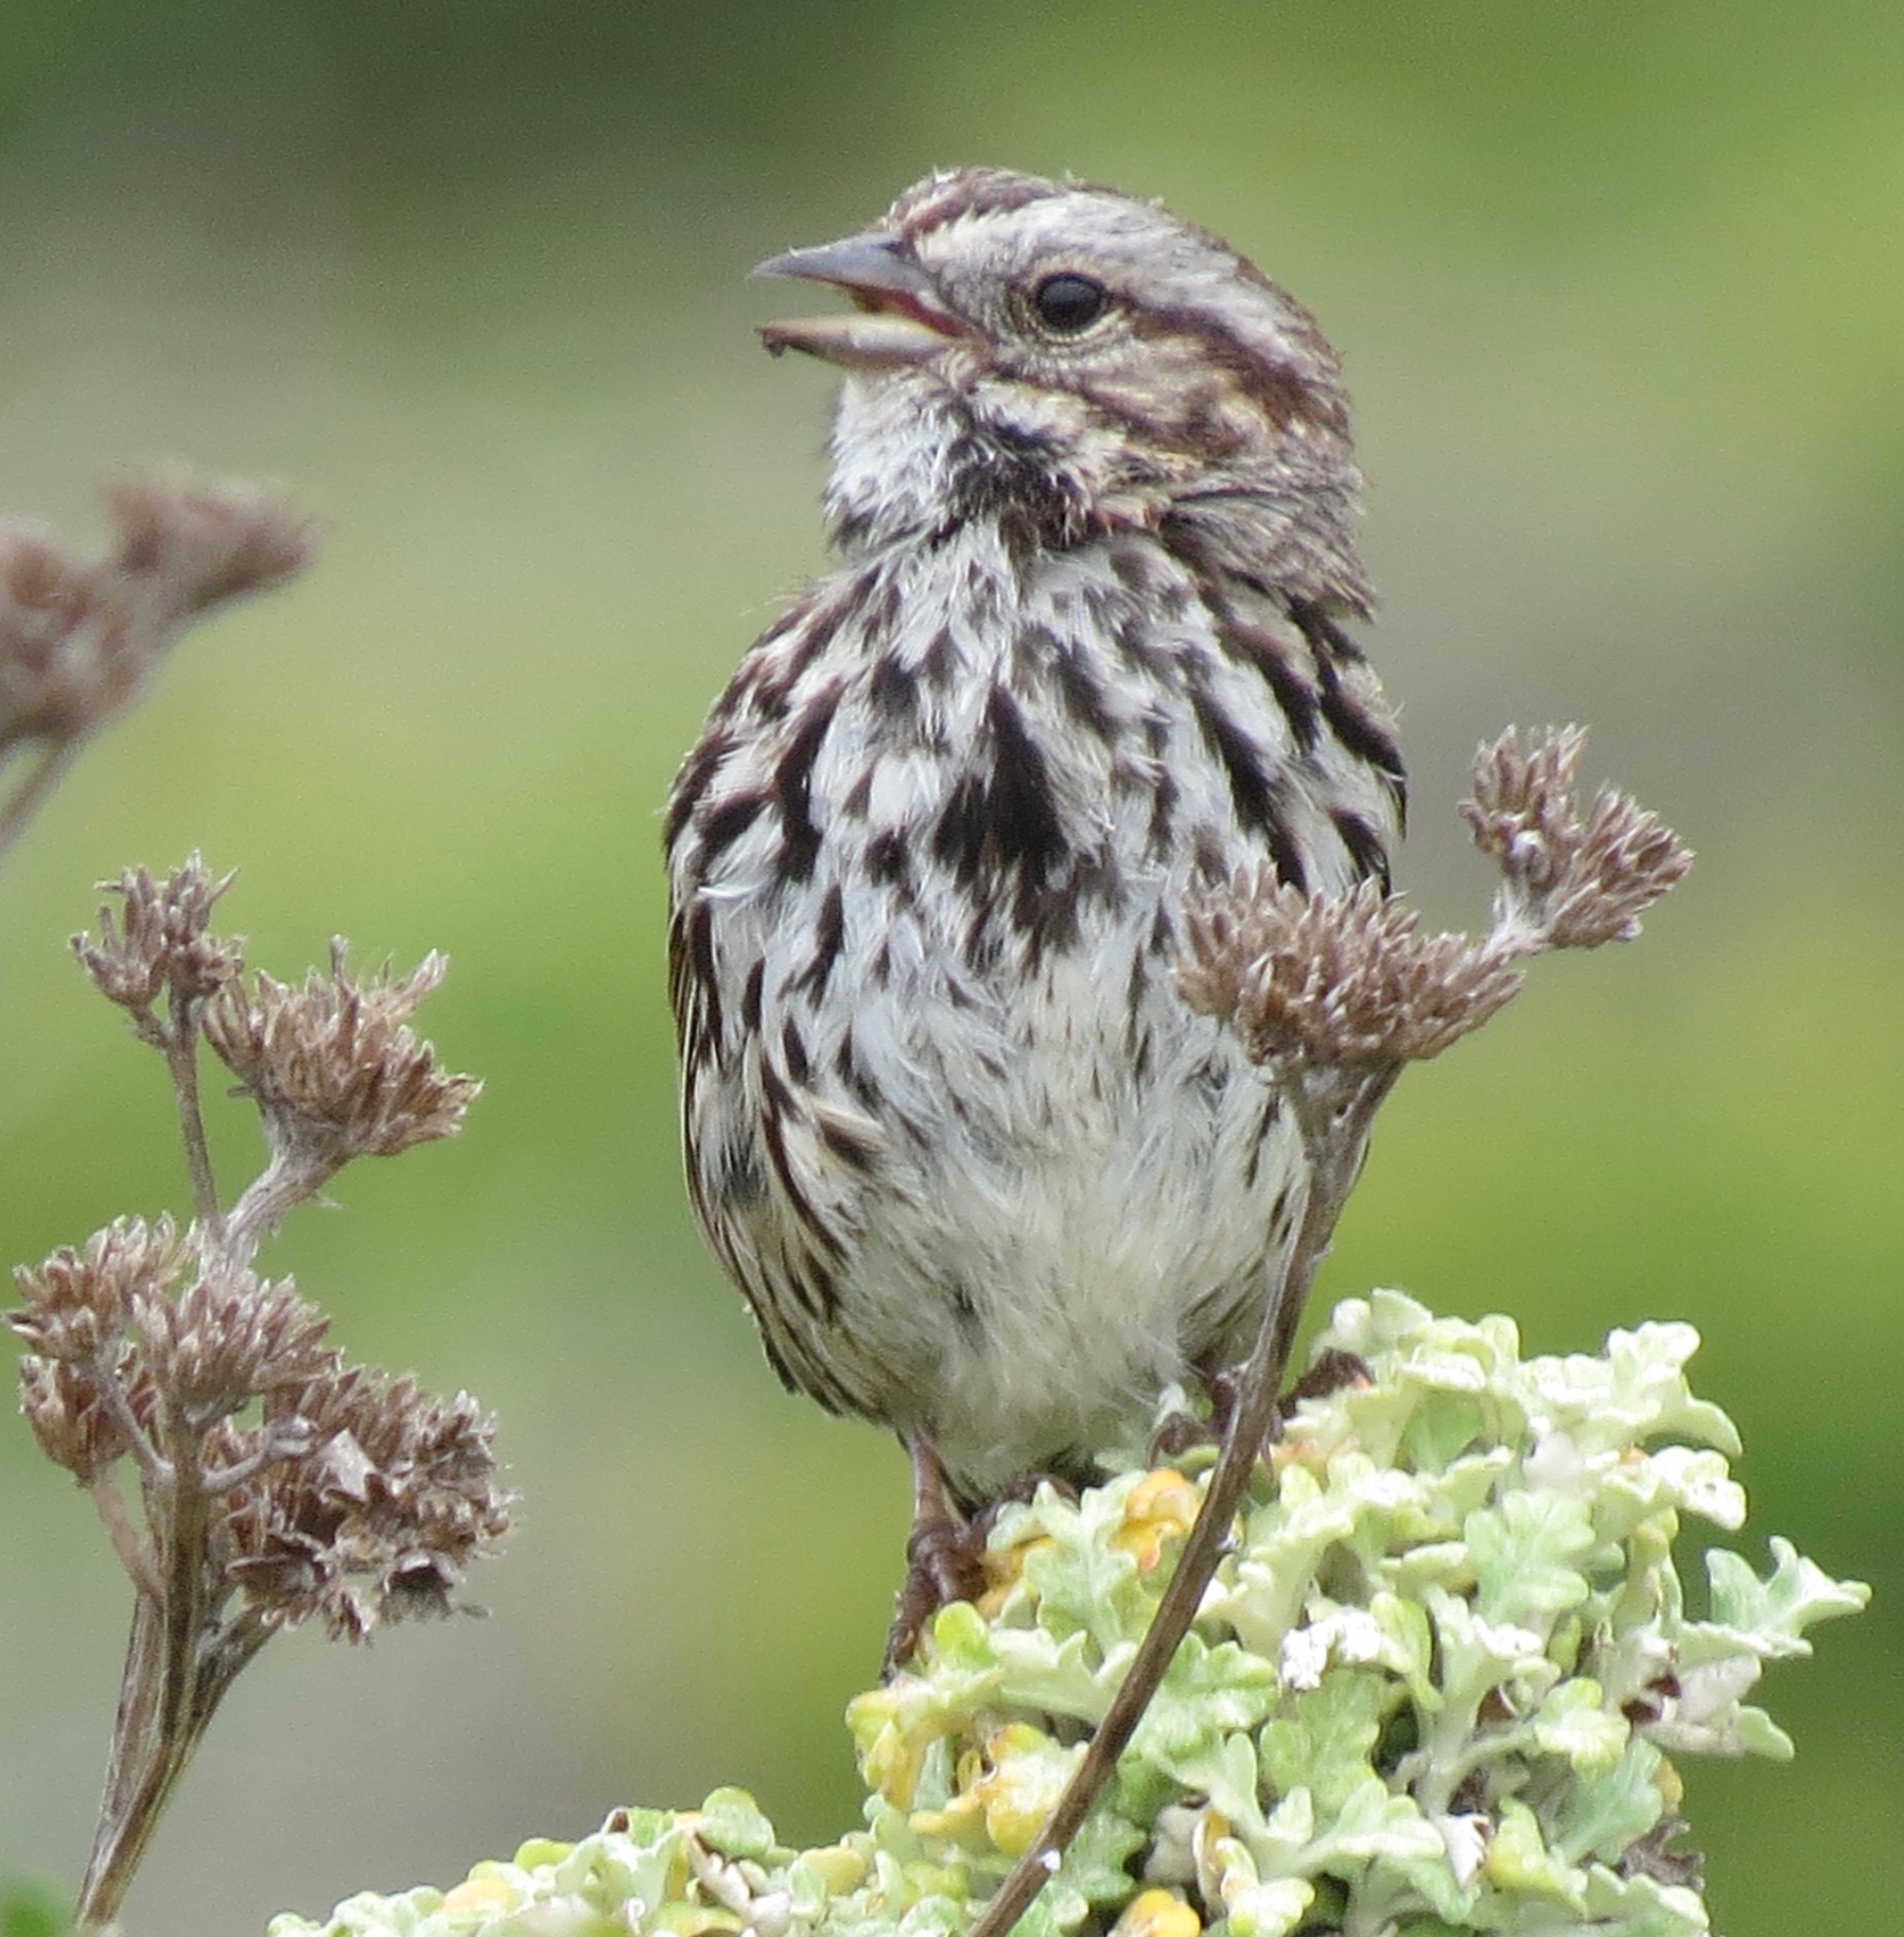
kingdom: Animalia
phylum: Chordata
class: Aves
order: Passeriformes
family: Passerellidae
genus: Melospiza
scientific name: Melospiza melodia
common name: Song sparrow
